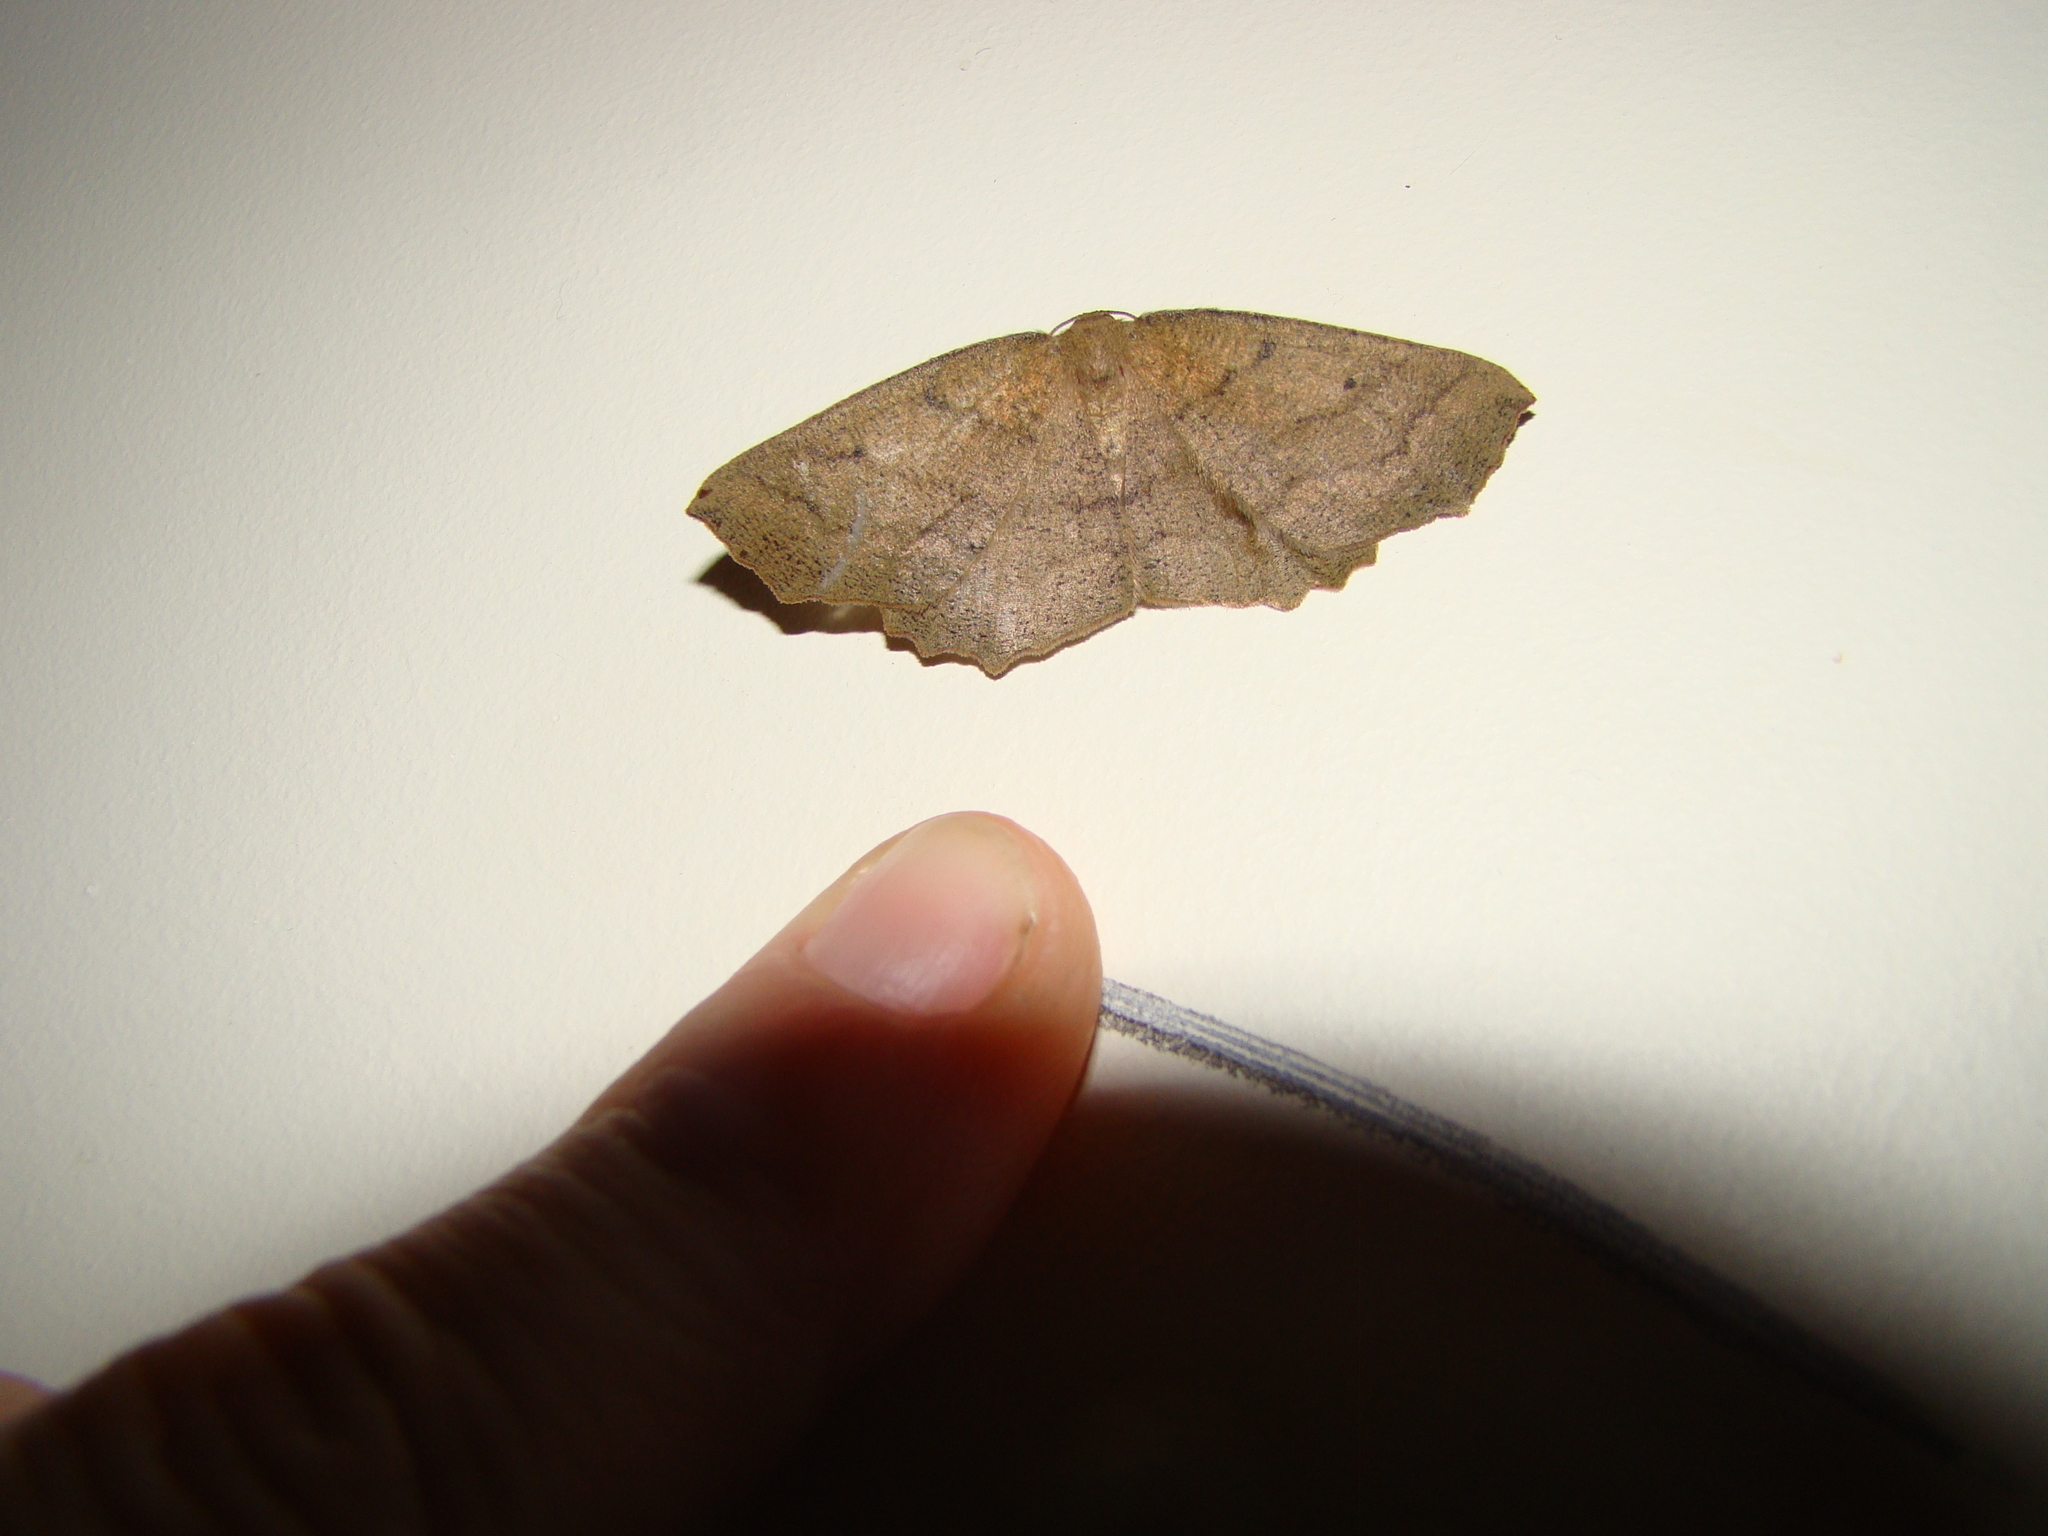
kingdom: Animalia
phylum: Arthropoda
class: Insecta
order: Lepidoptera
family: Geometridae
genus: Xyridacma
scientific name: Xyridacma ustaria
